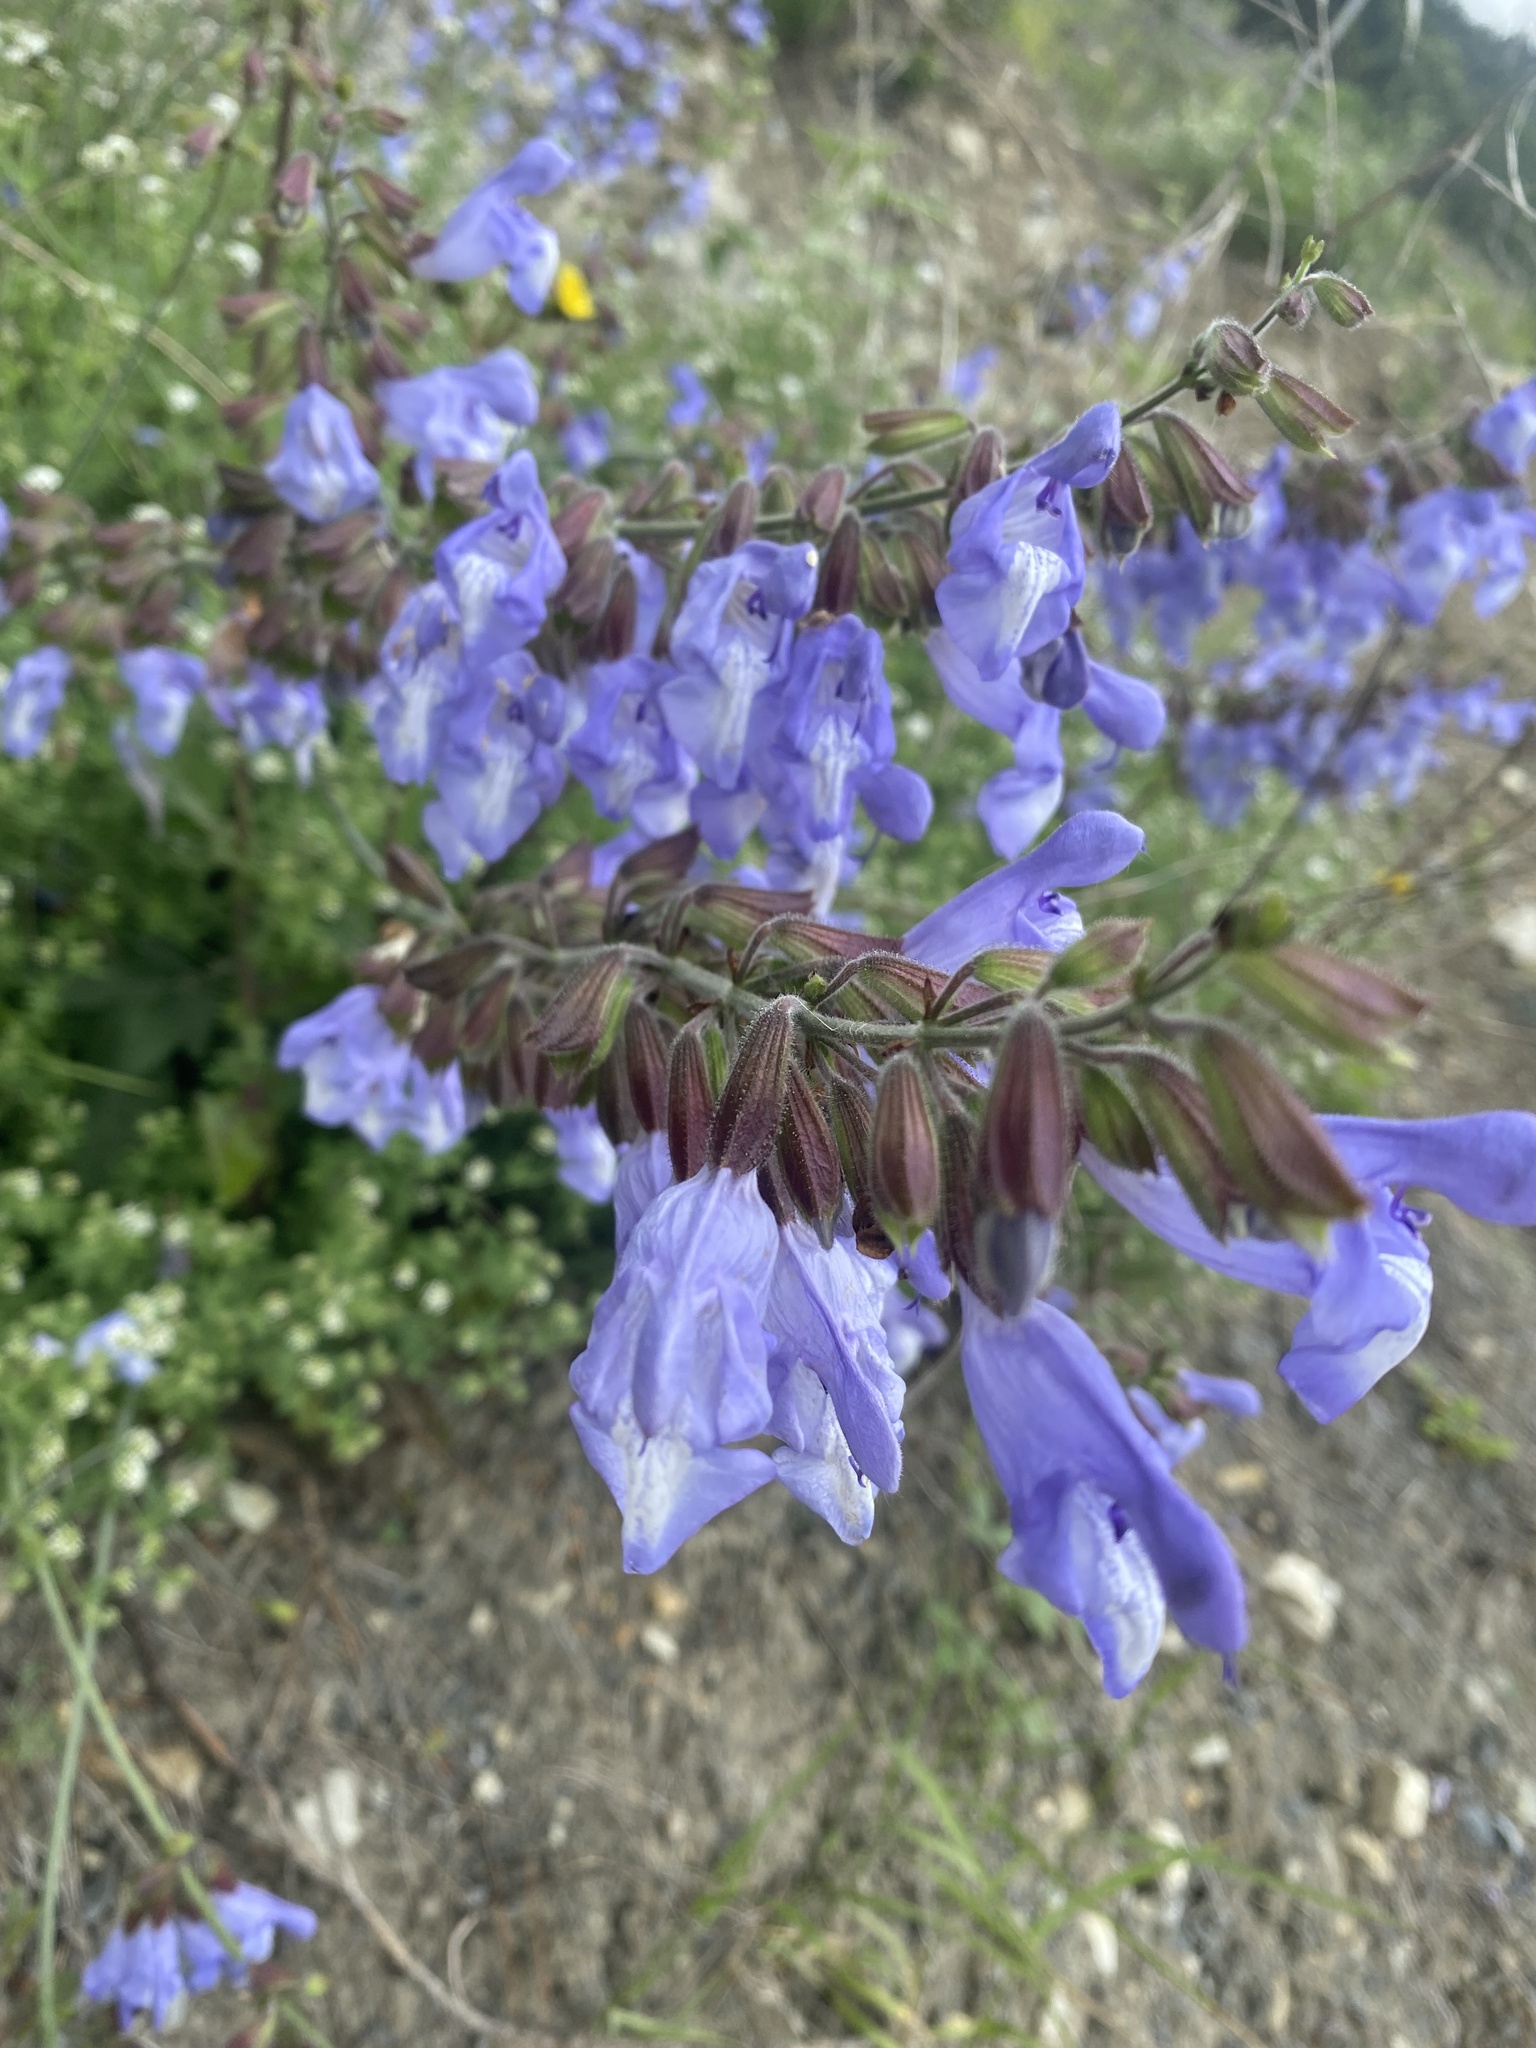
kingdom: Plantae
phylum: Tracheophyta
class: Magnoliopsida
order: Lamiales
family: Lamiaceae
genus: Salvia
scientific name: Salvia ringens
